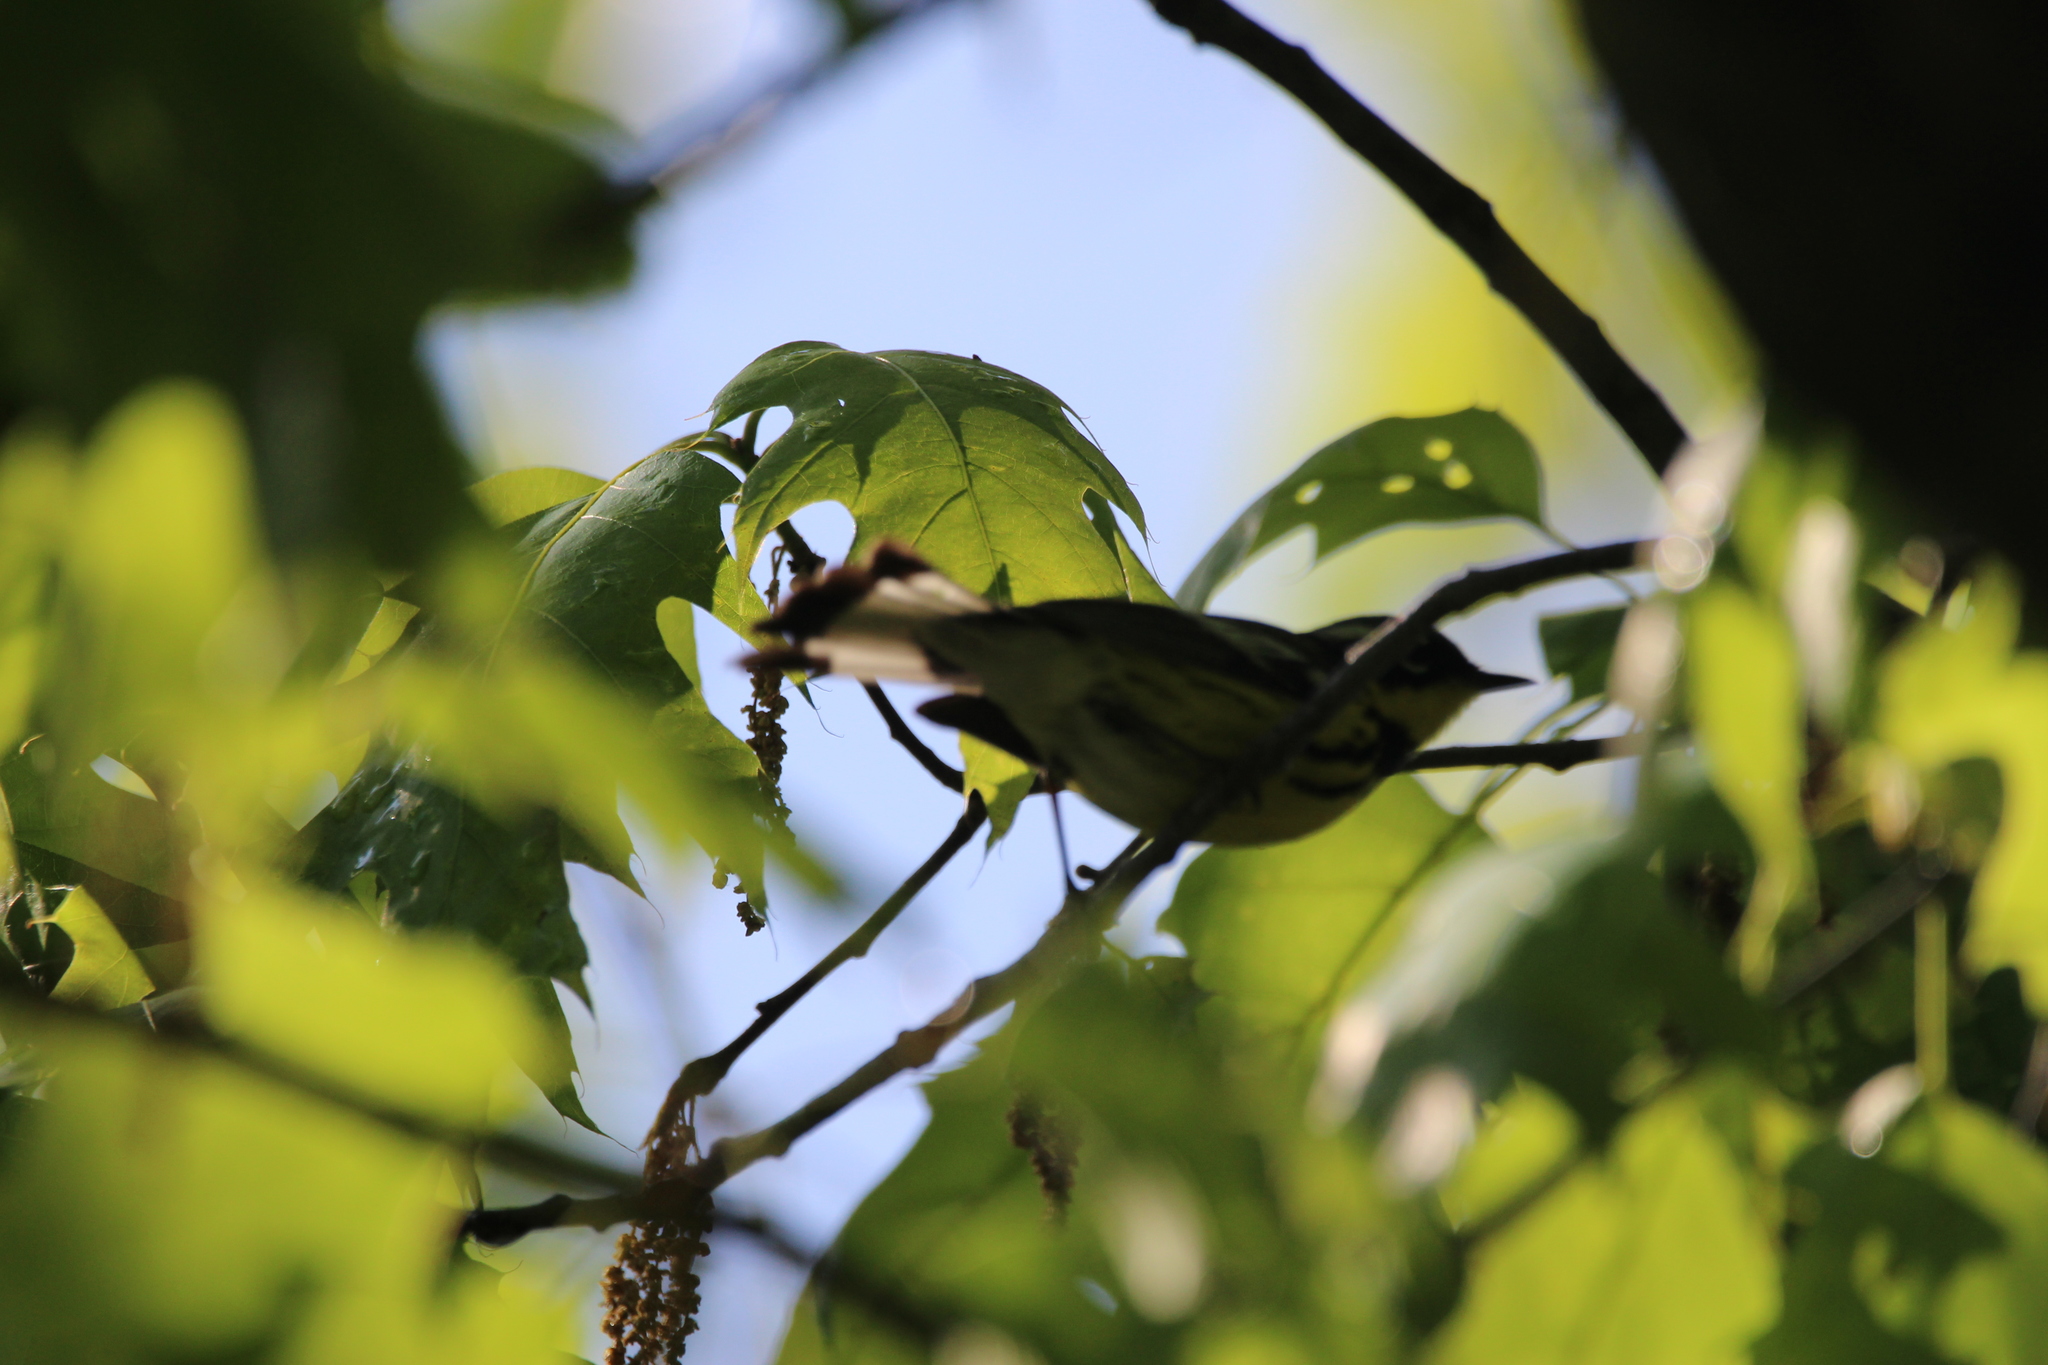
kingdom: Animalia
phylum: Chordata
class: Aves
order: Passeriformes
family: Parulidae
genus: Setophaga
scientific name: Setophaga magnolia
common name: Magnolia warbler
